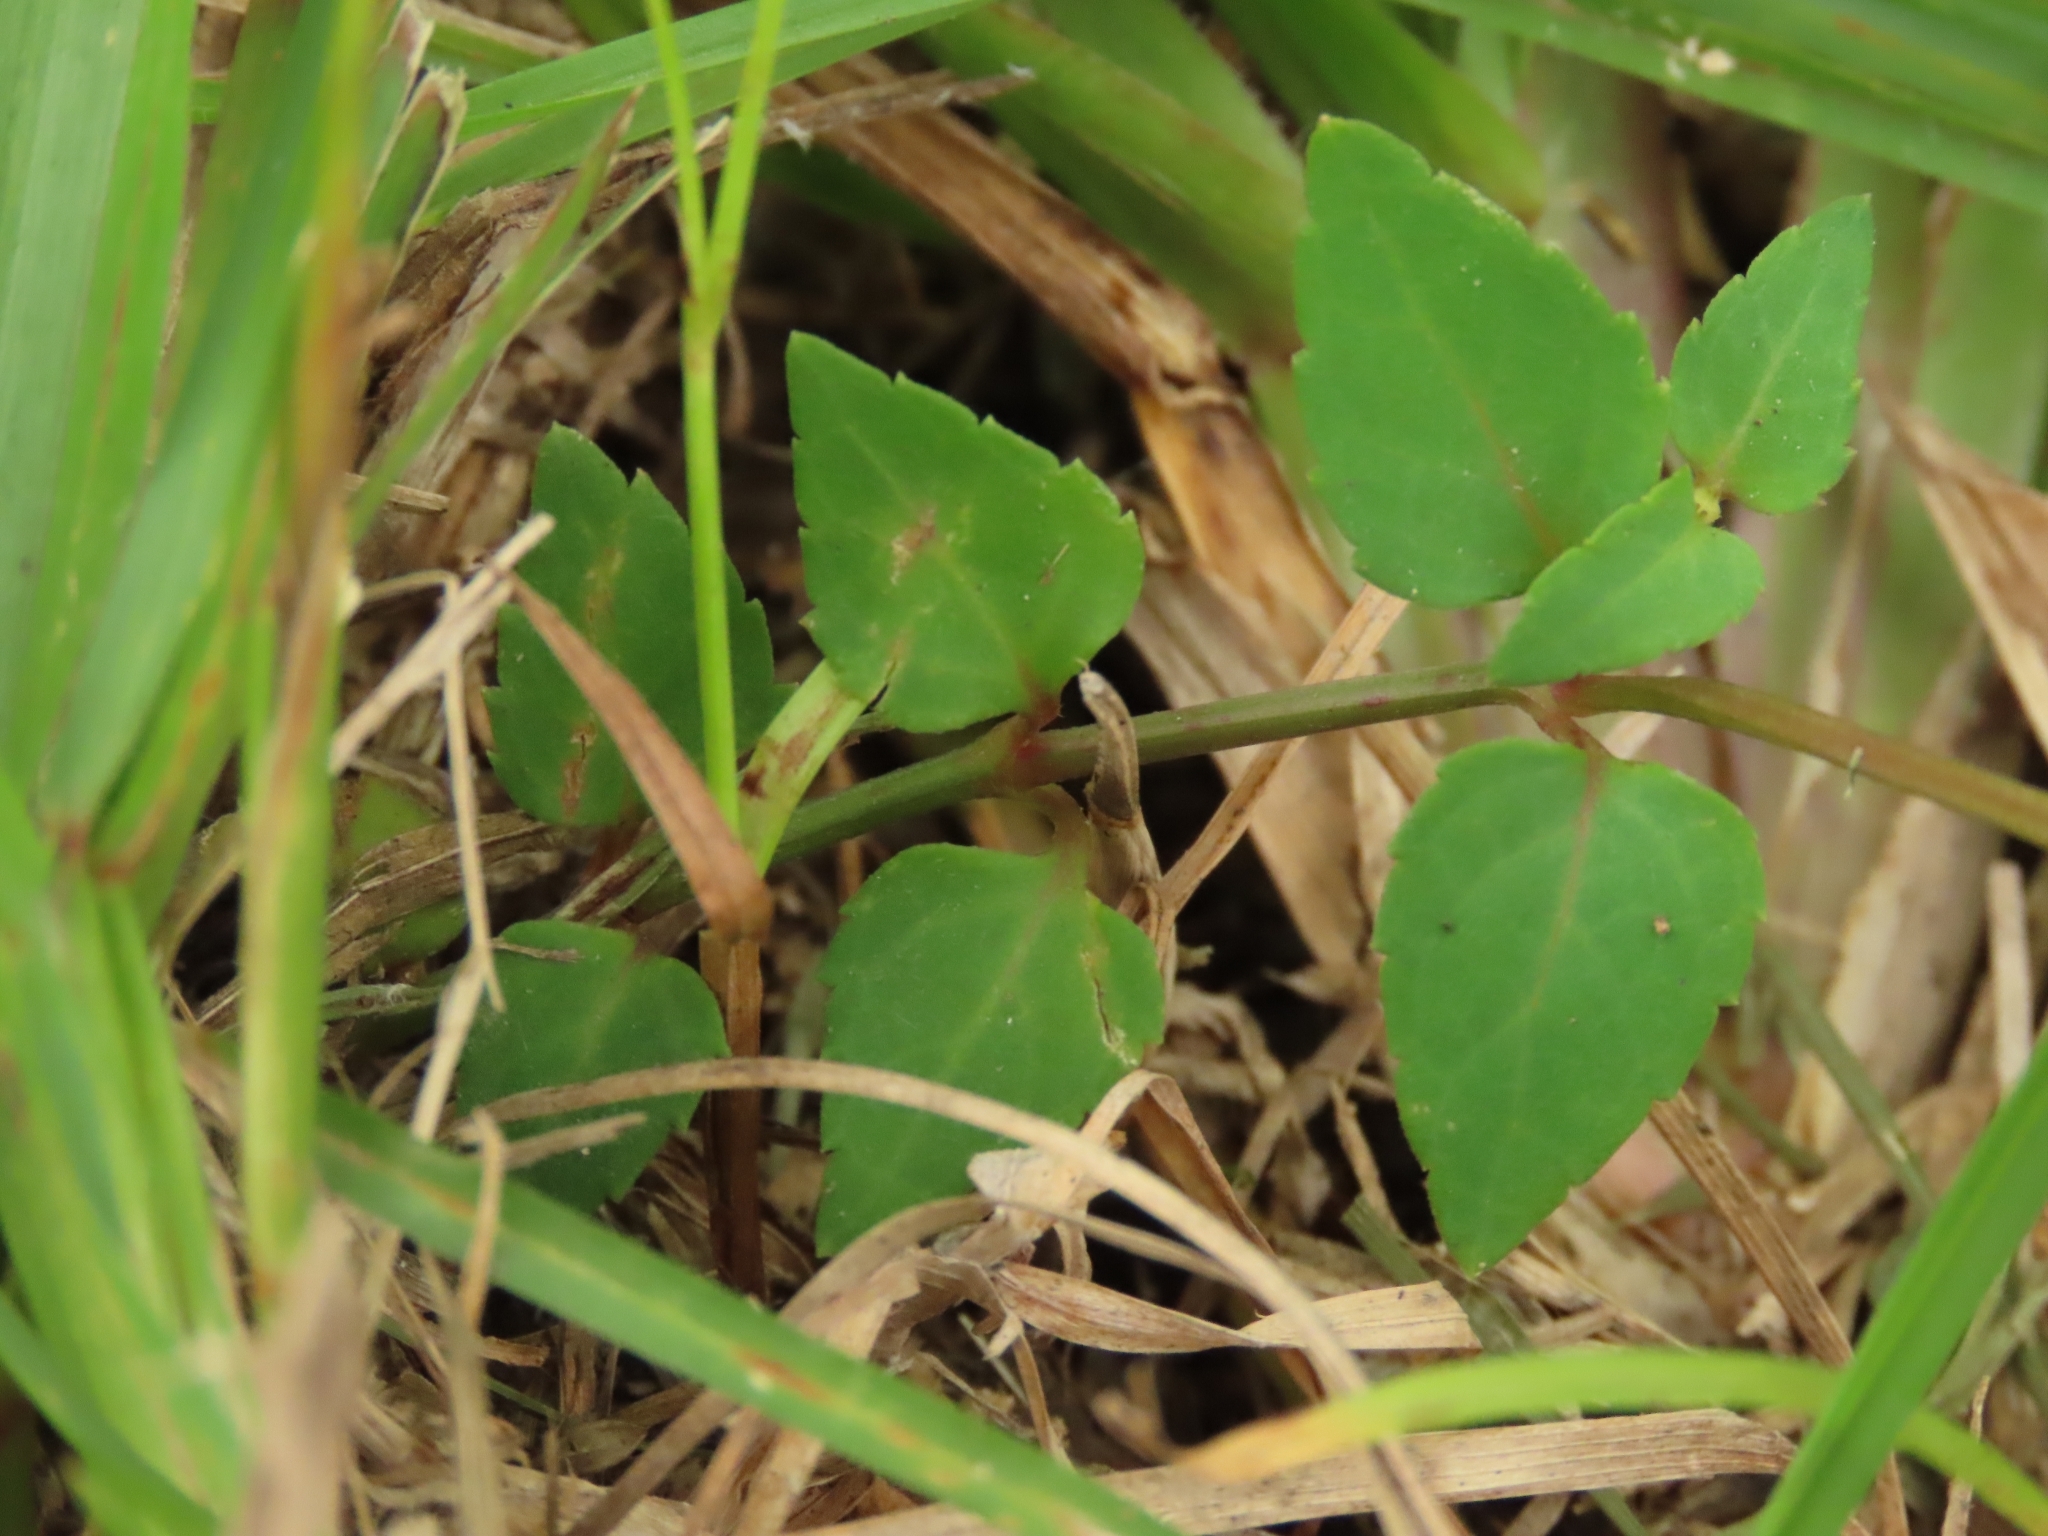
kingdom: Plantae
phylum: Tracheophyta
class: Magnoliopsida
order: Lamiales
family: Linderniaceae
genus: Torenia
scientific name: Torenia concolor
